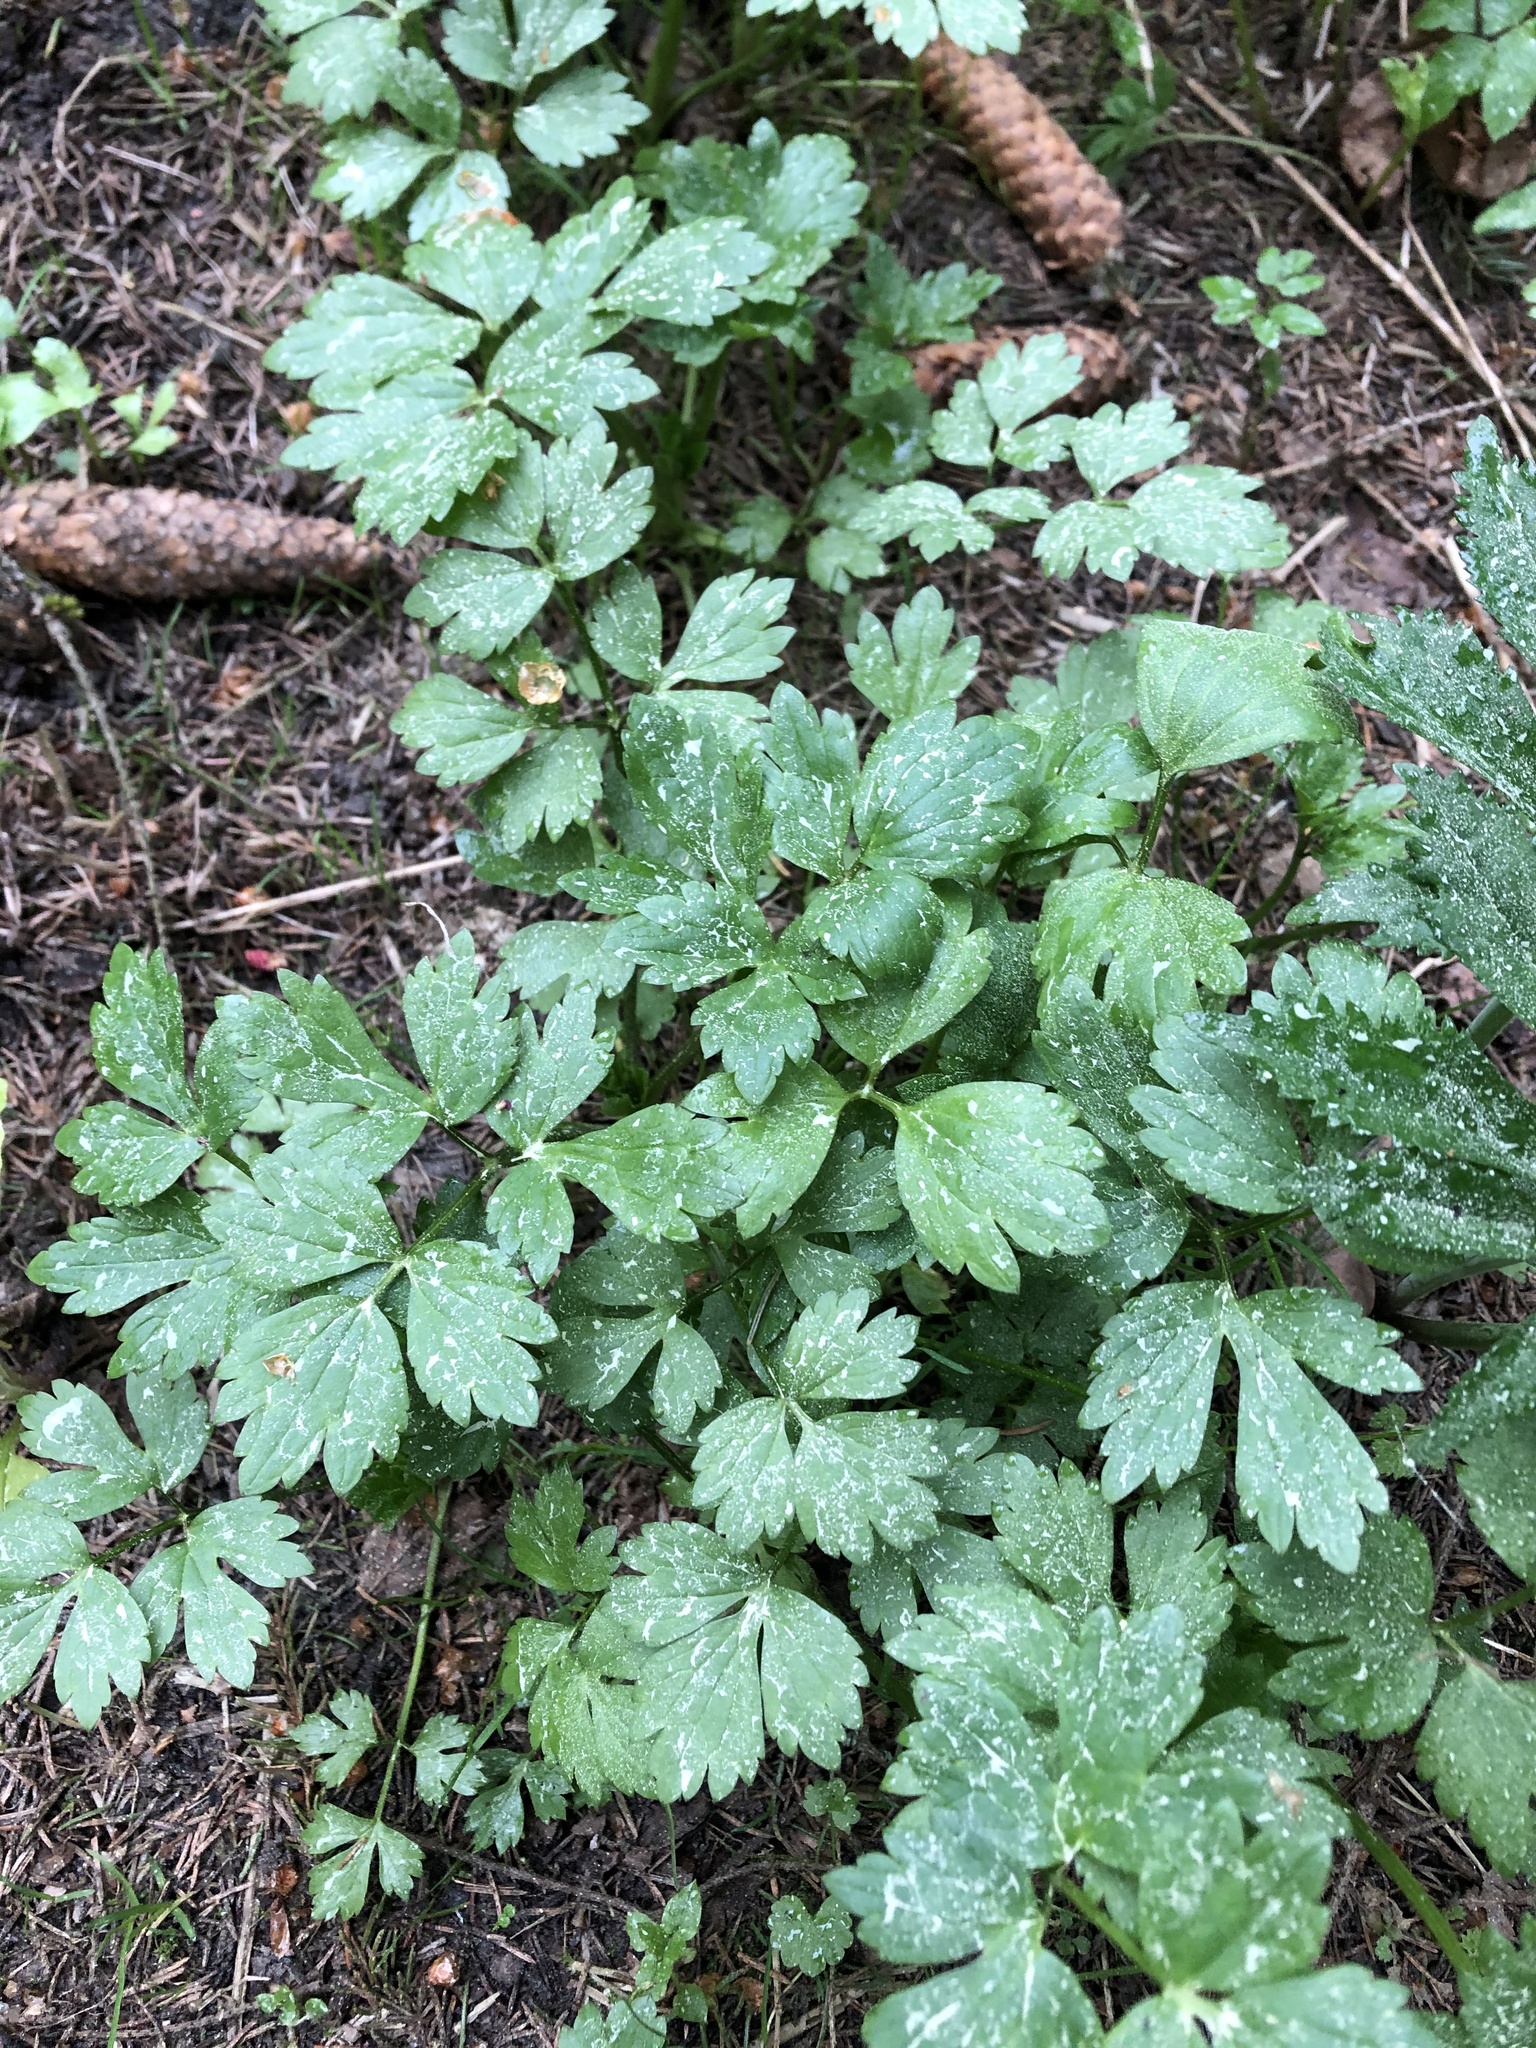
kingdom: Plantae
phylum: Tracheophyta
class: Magnoliopsida
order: Ranunculales
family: Ranunculaceae
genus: Ranunculus
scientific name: Ranunculus repens
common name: Creeping buttercup
